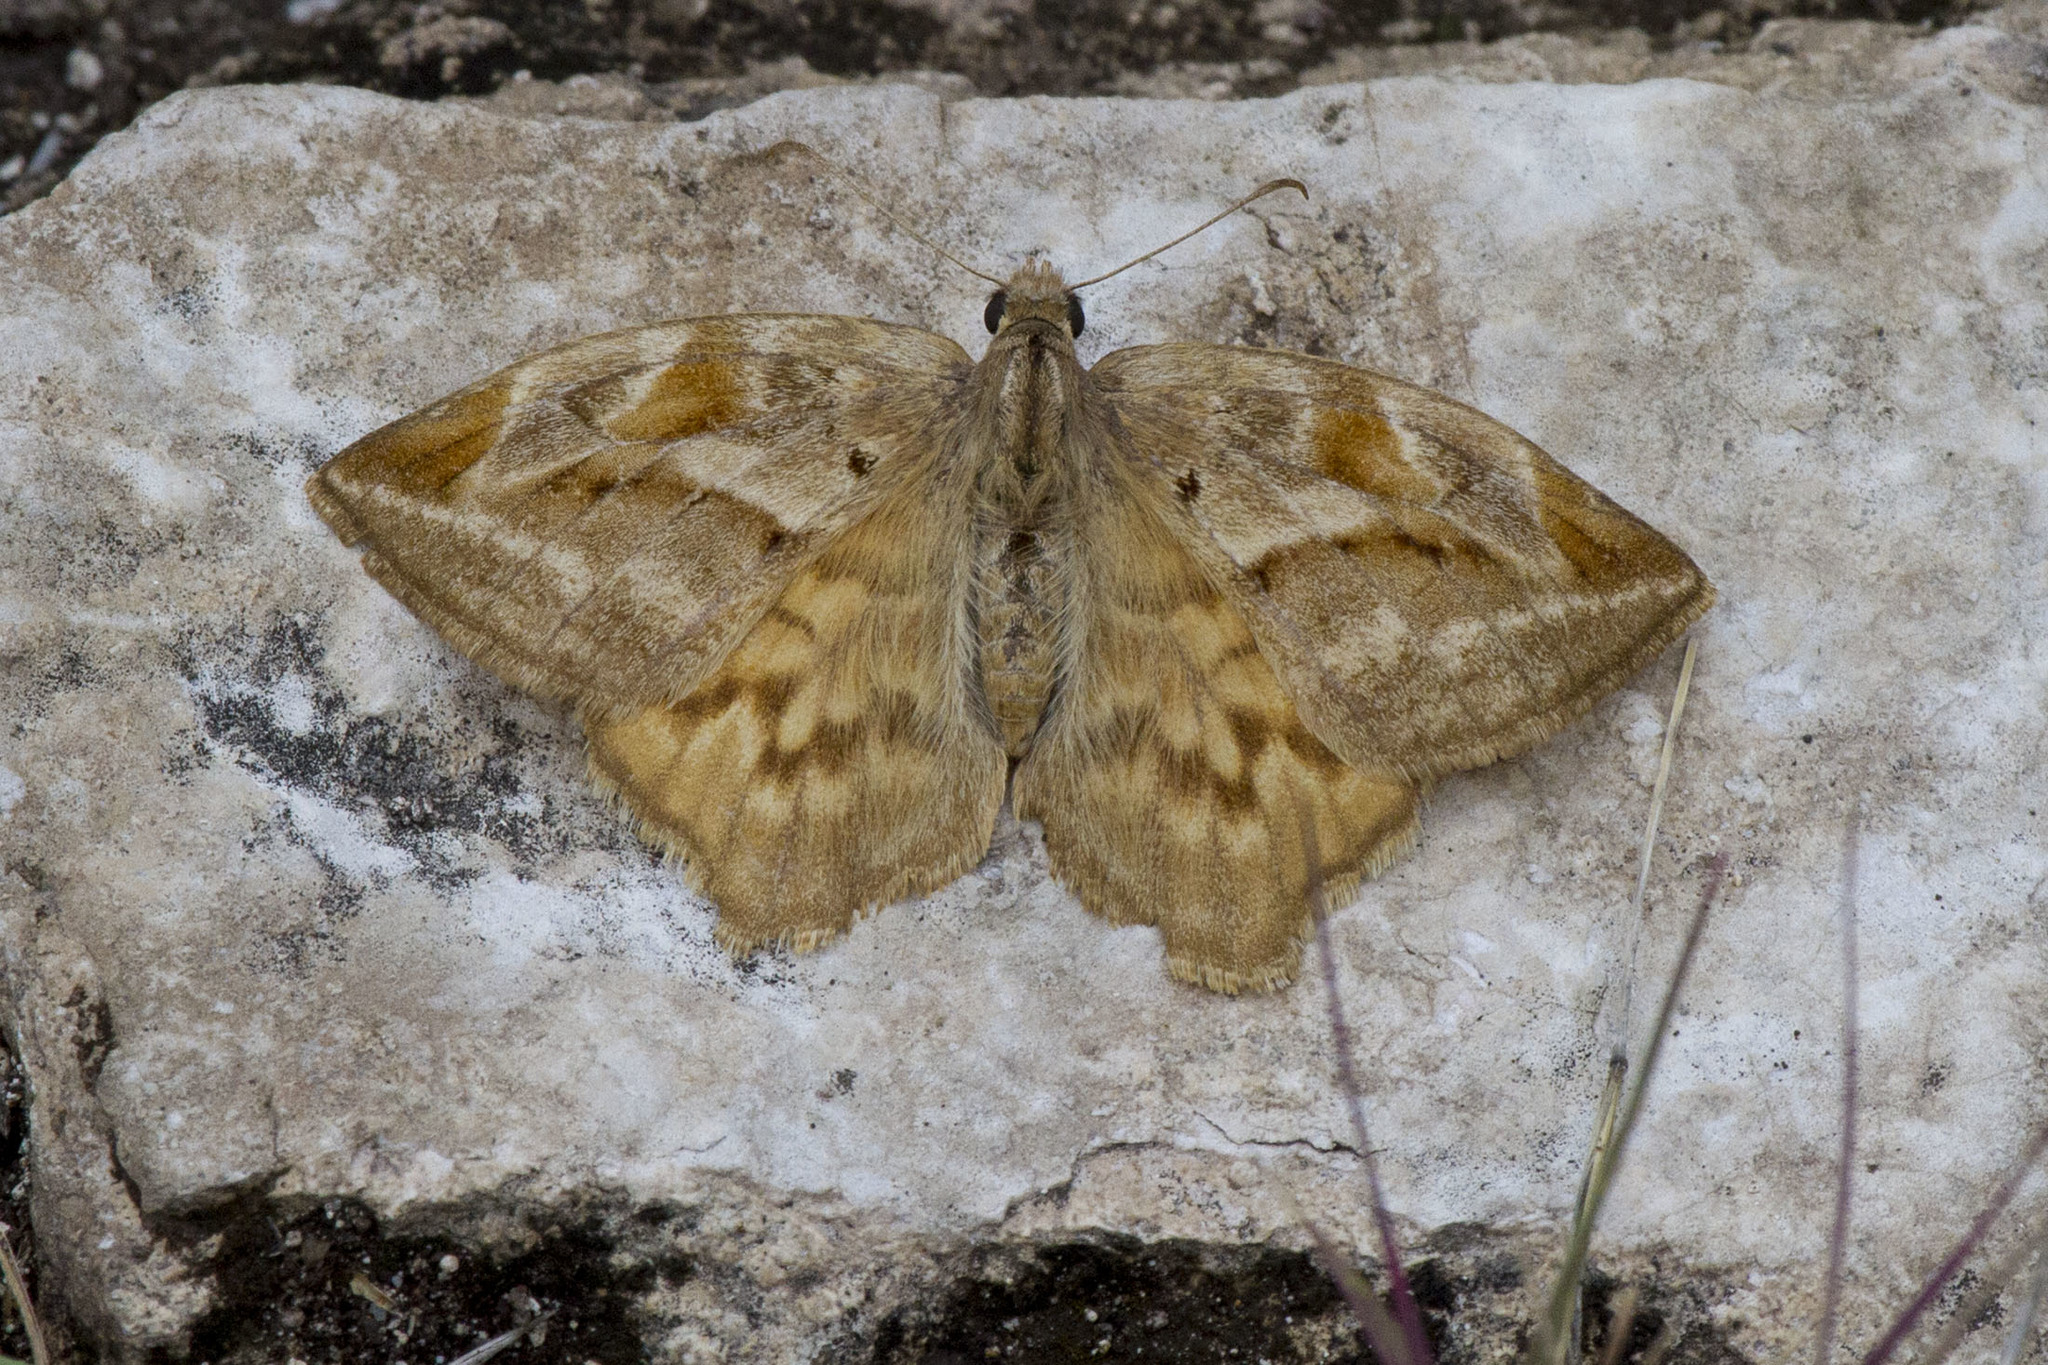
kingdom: Animalia
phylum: Arthropoda
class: Insecta
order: Lepidoptera
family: Hesperiidae
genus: Doberes
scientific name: Doberes hewitsonius
